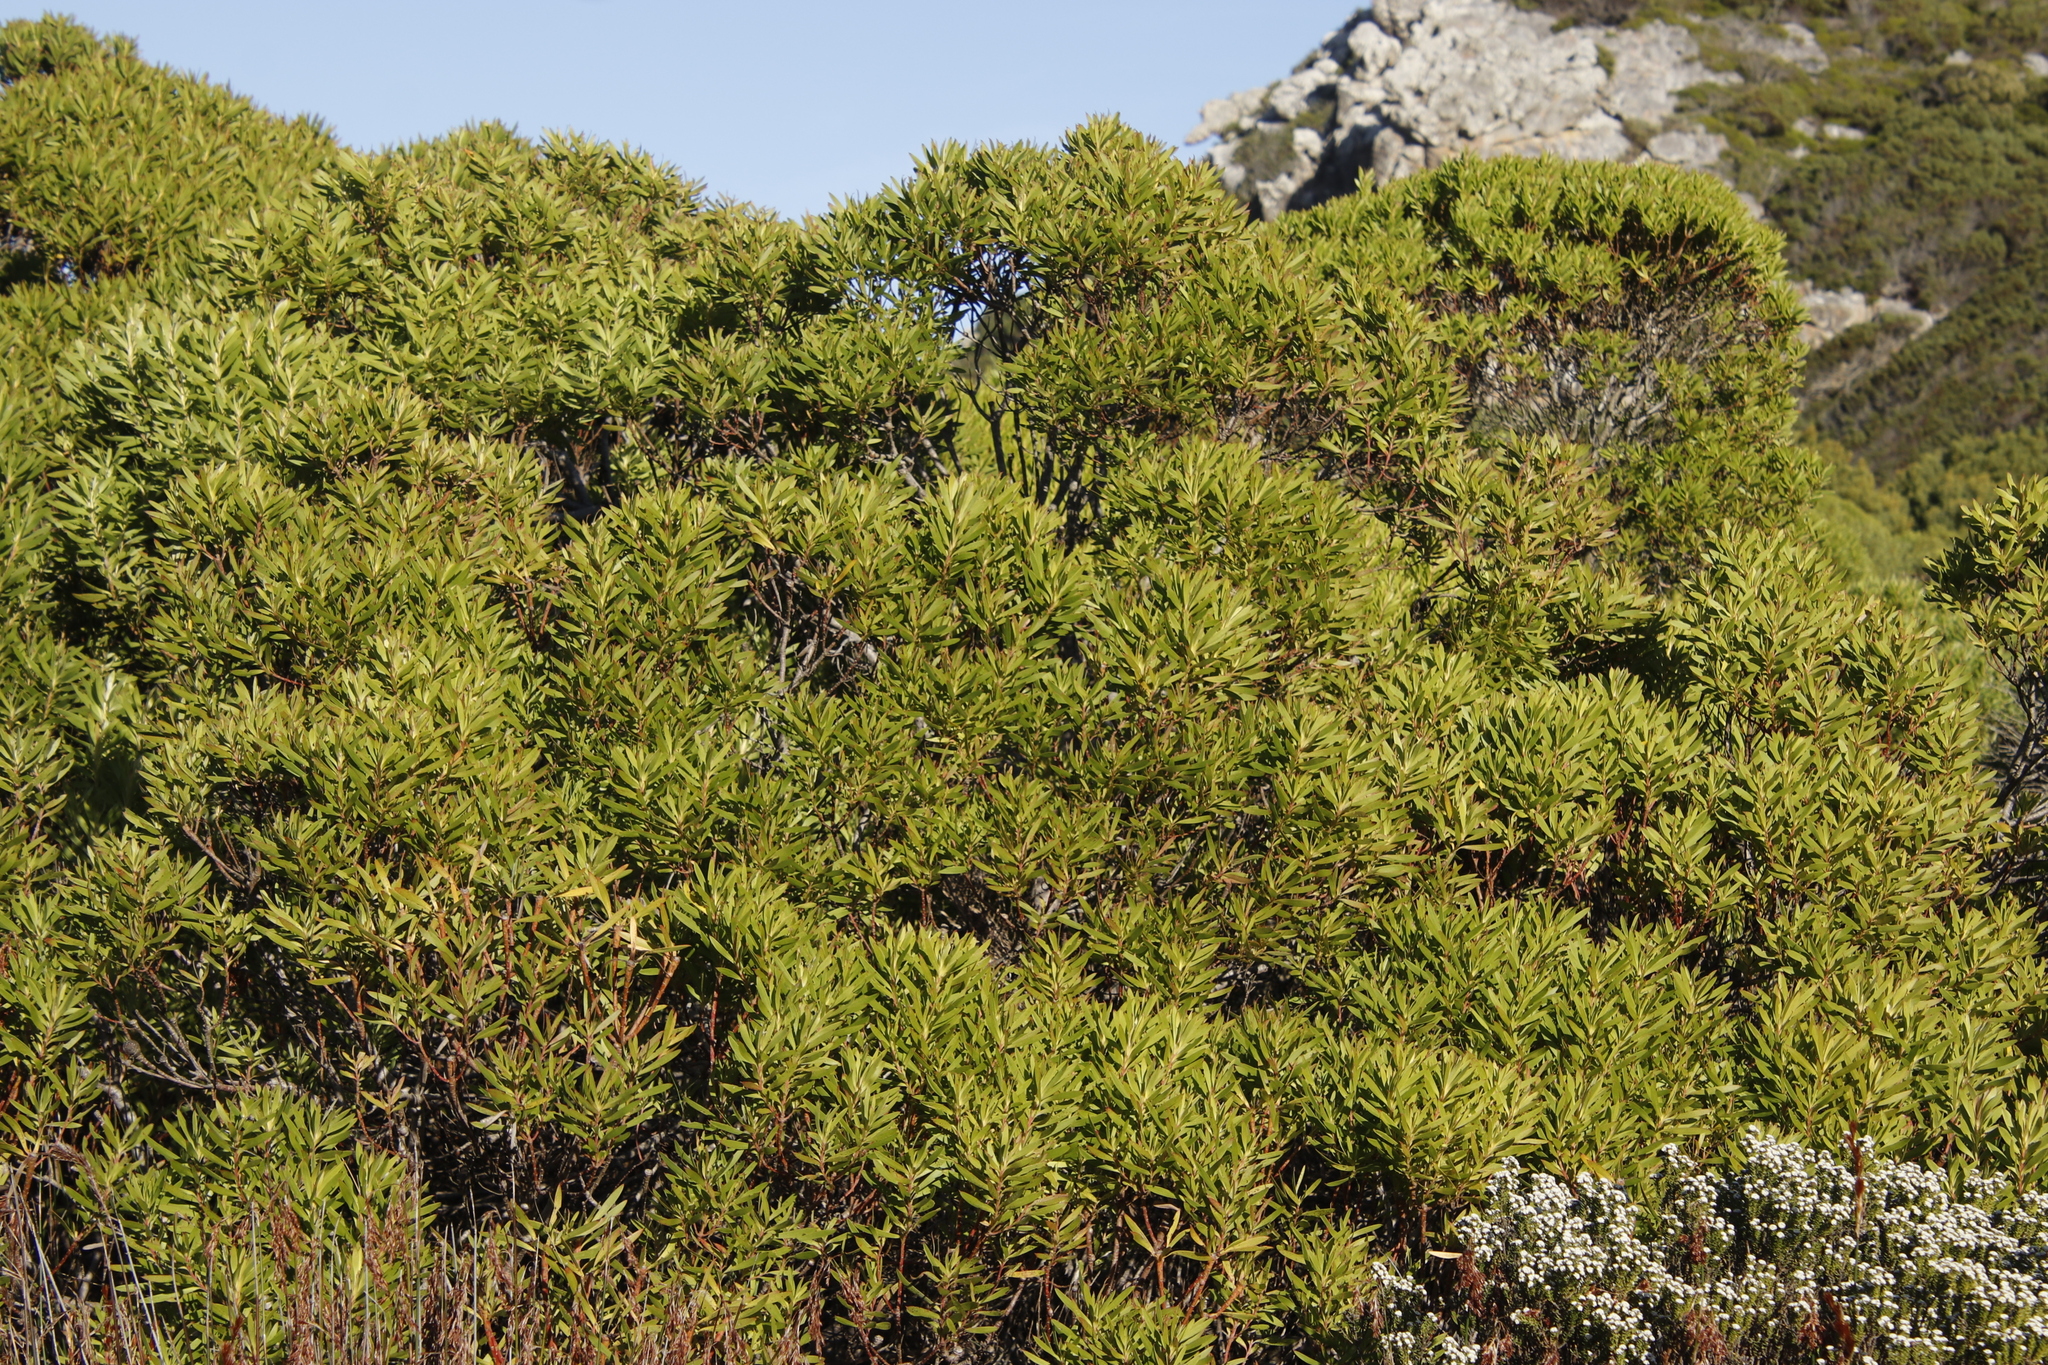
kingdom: Plantae
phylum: Tracheophyta
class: Magnoliopsida
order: Proteales
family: Proteaceae
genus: Leucadendron
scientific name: Leucadendron coniferum
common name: Dune conebush
